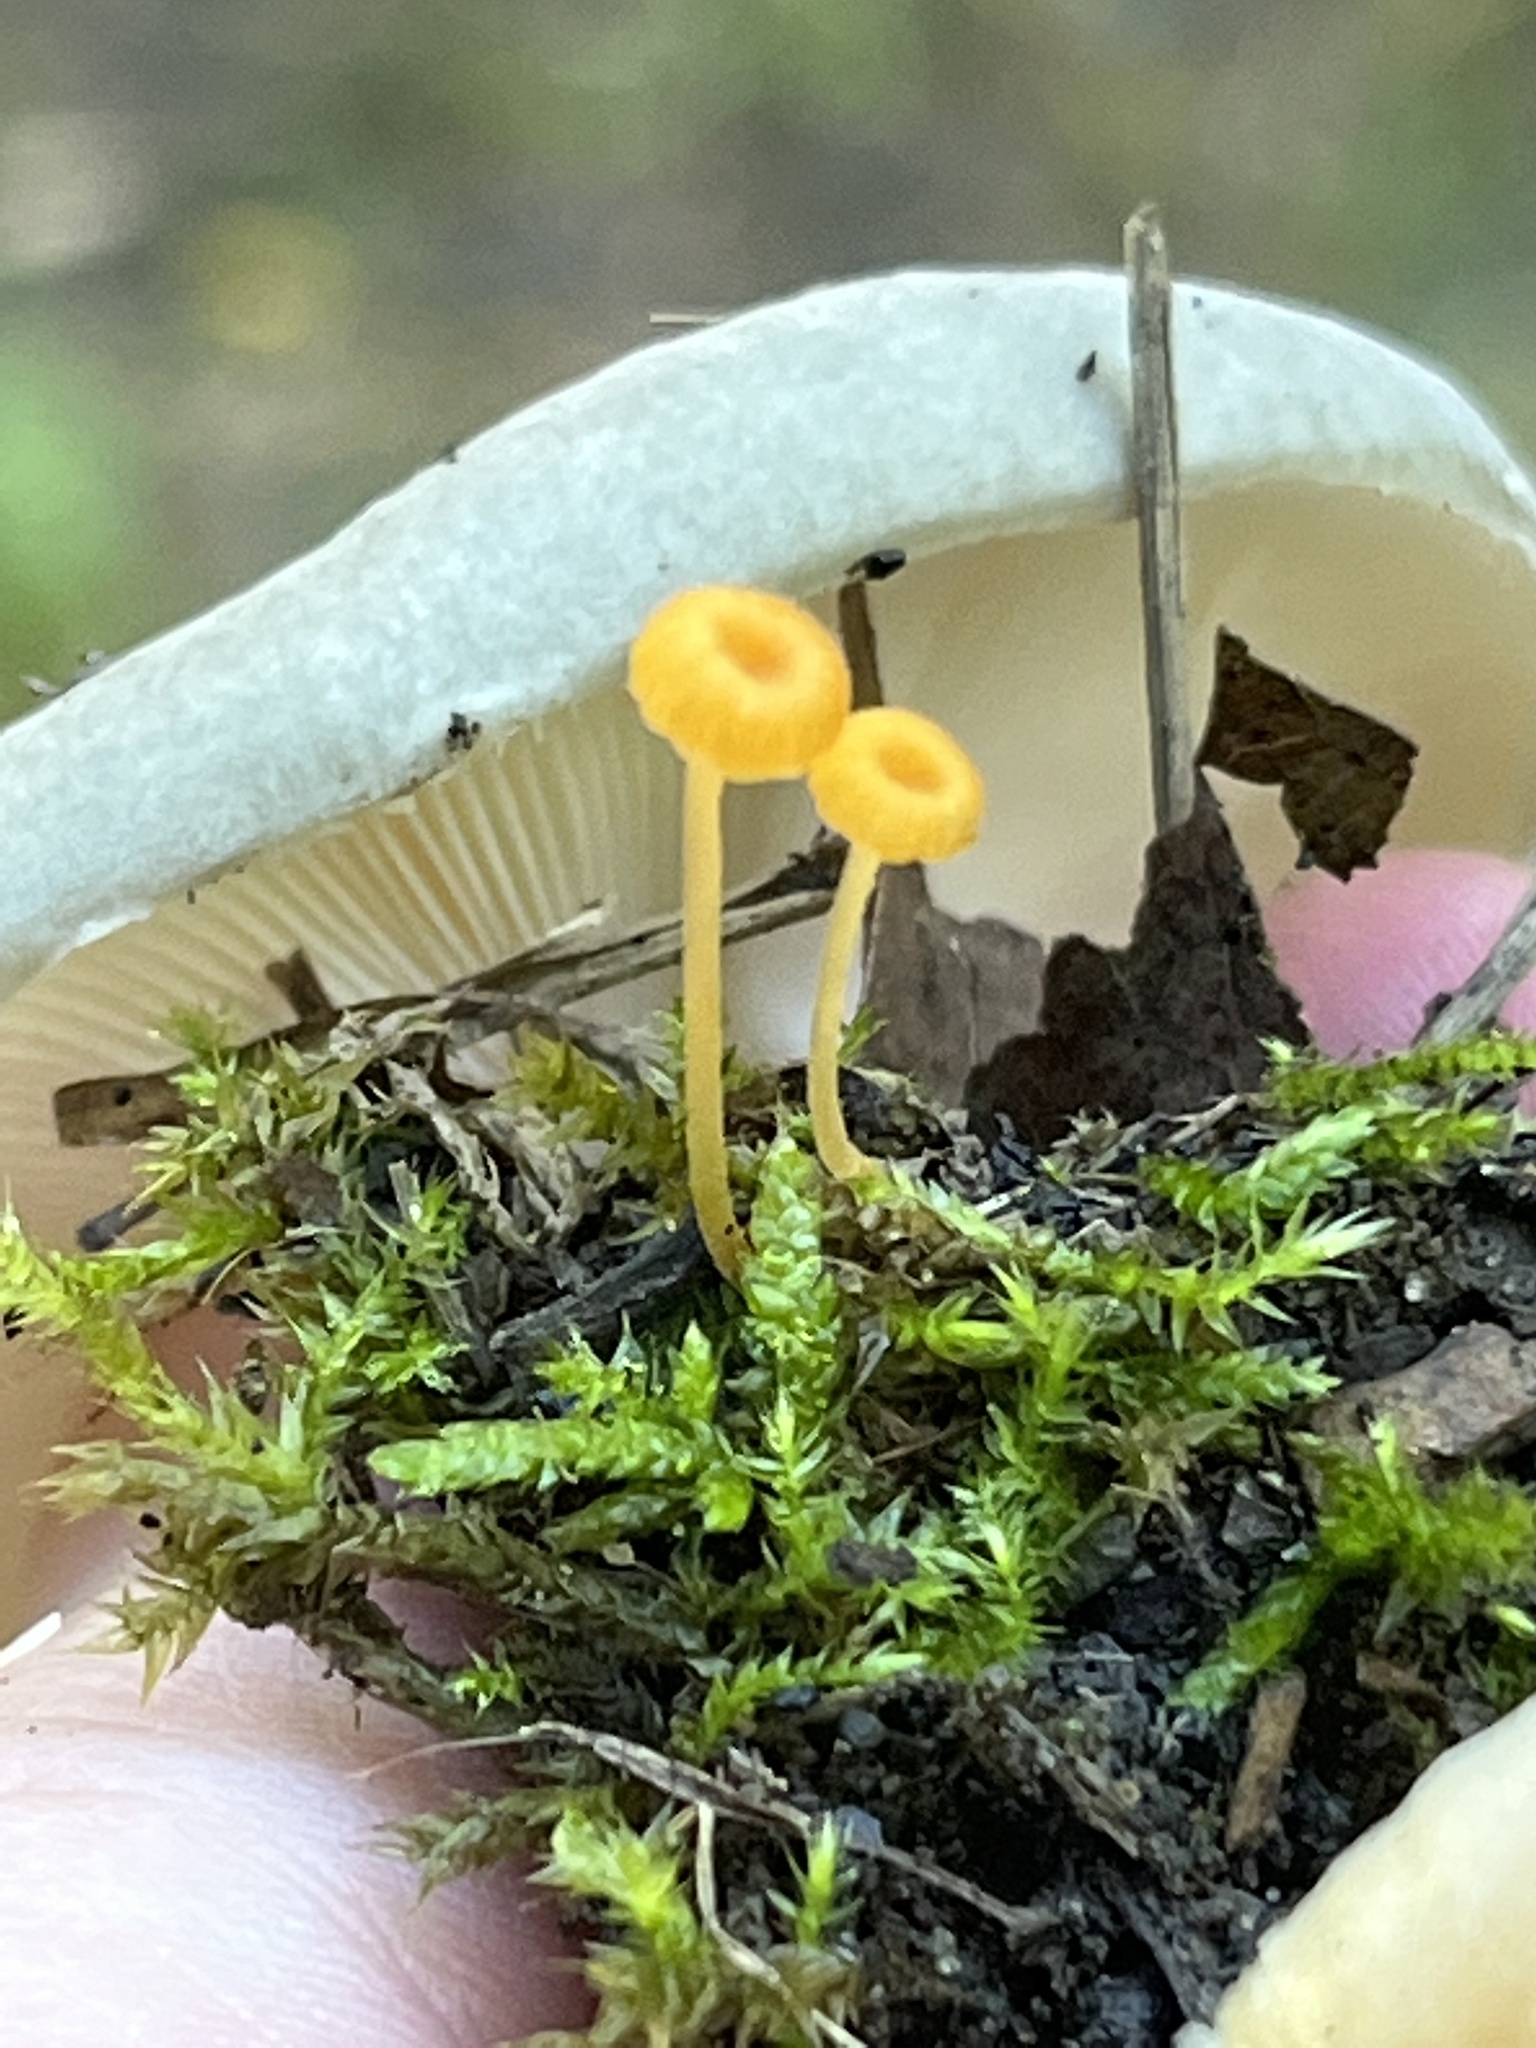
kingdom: Fungi
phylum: Basidiomycota
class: Agaricomycetes
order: Hymenochaetales
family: Rickenellaceae
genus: Rickenella
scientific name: Rickenella fibula
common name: Orange mosscap
